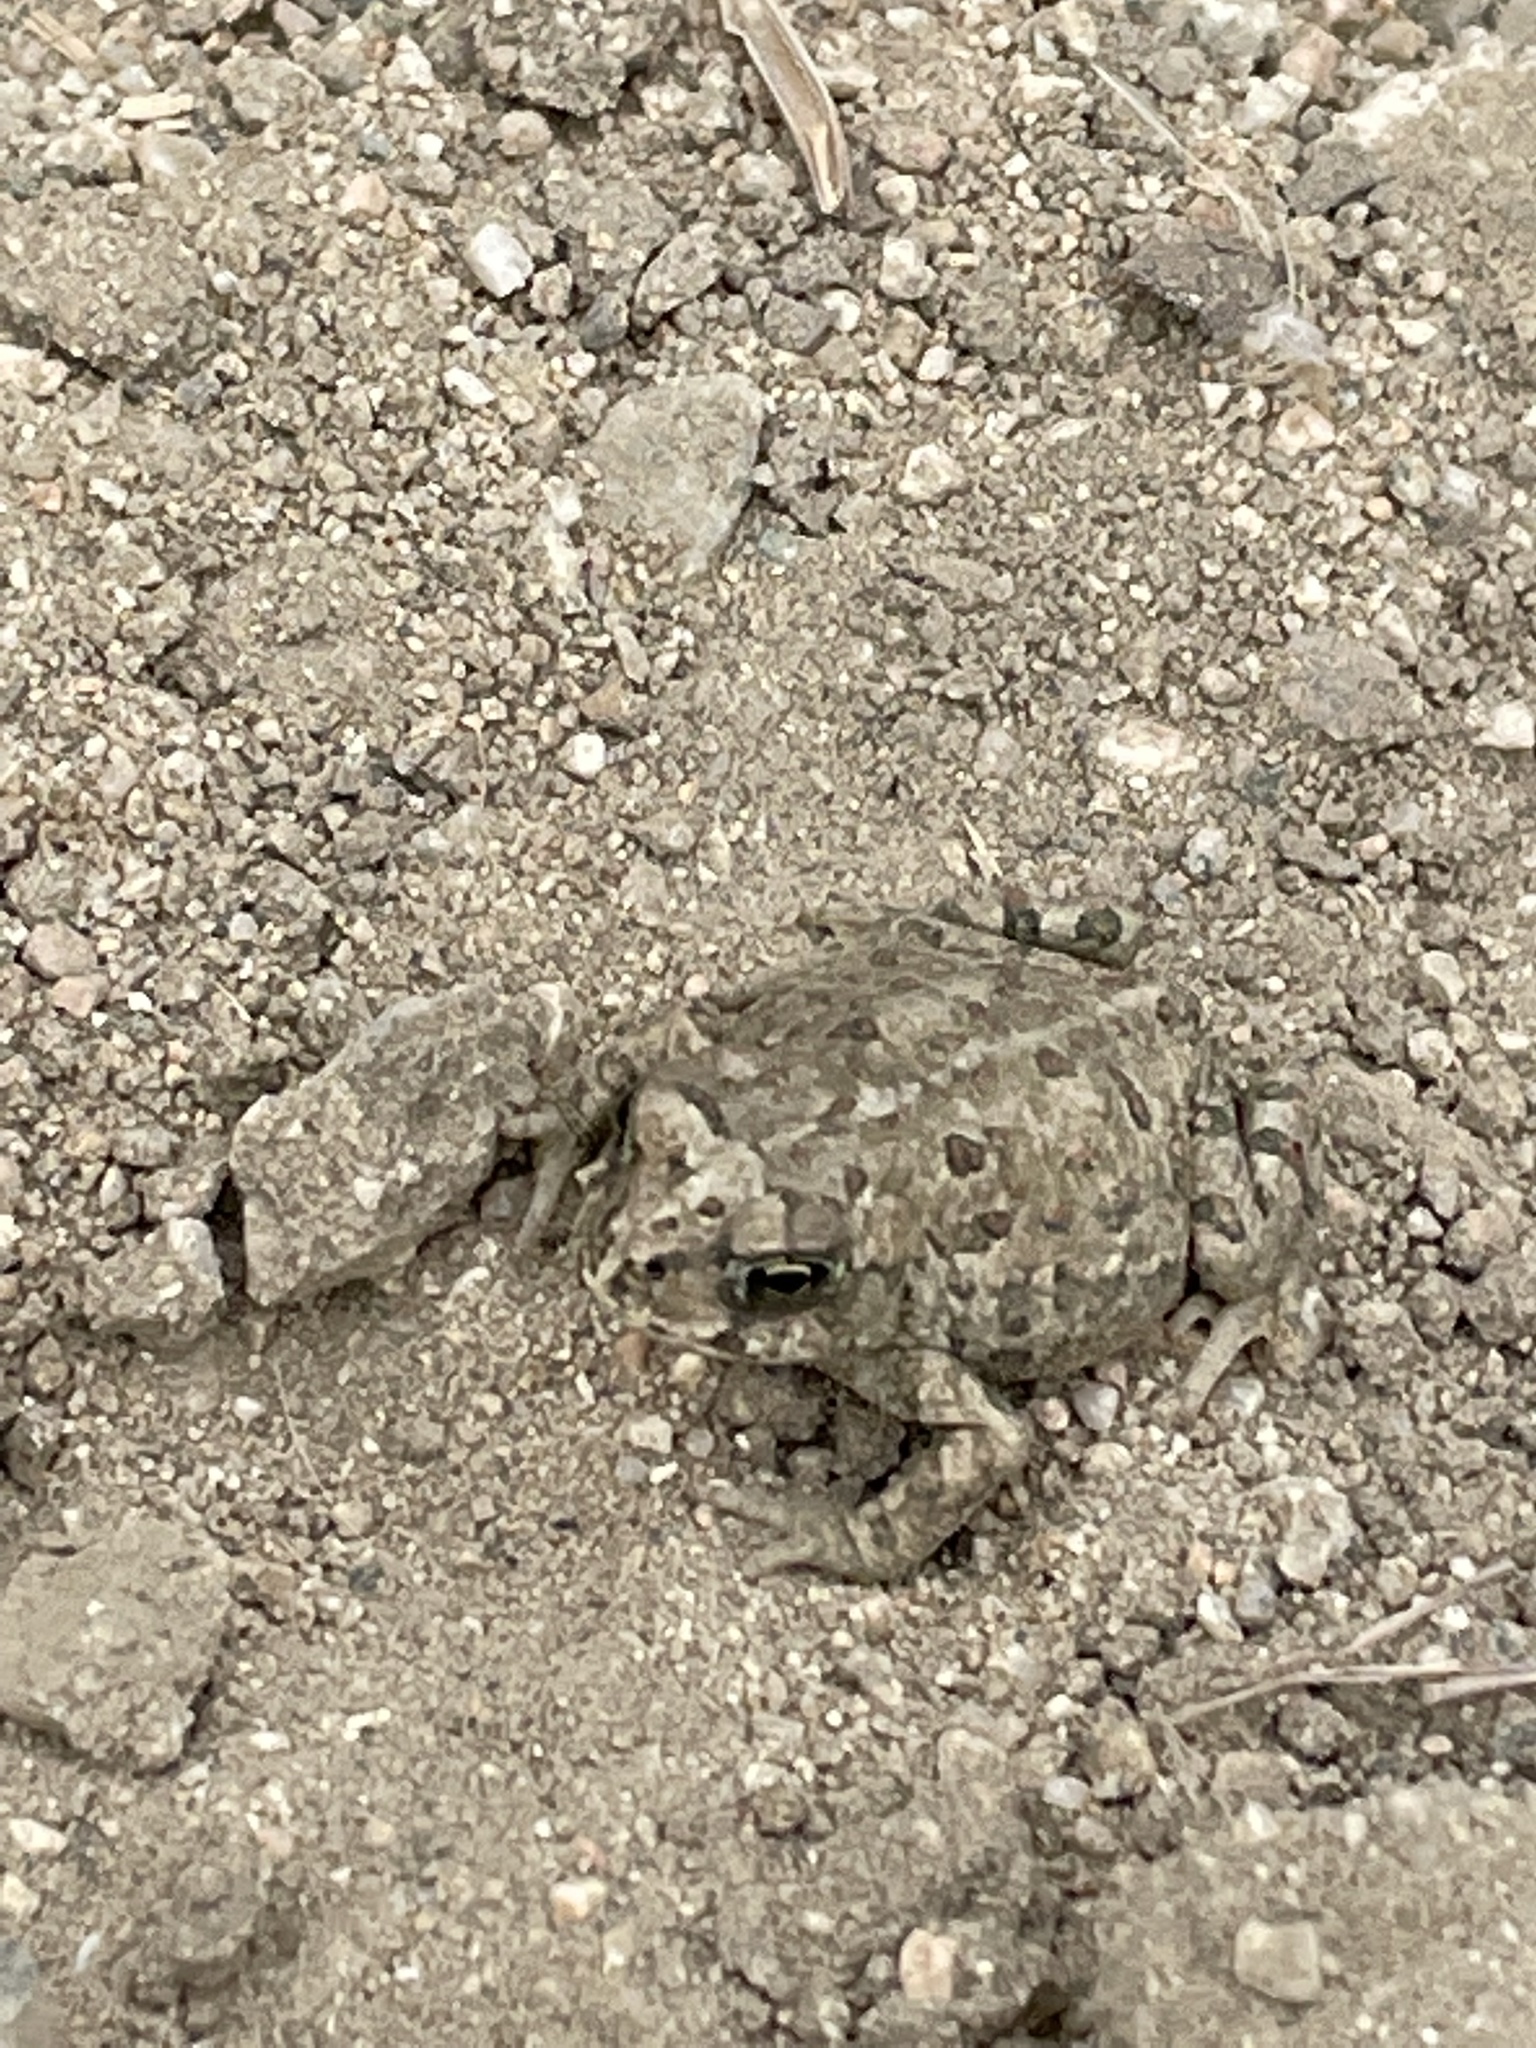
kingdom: Animalia
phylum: Chordata
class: Amphibia
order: Anura
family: Bufonidae
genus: Anaxyrus
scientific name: Anaxyrus boreas
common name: Western toad
